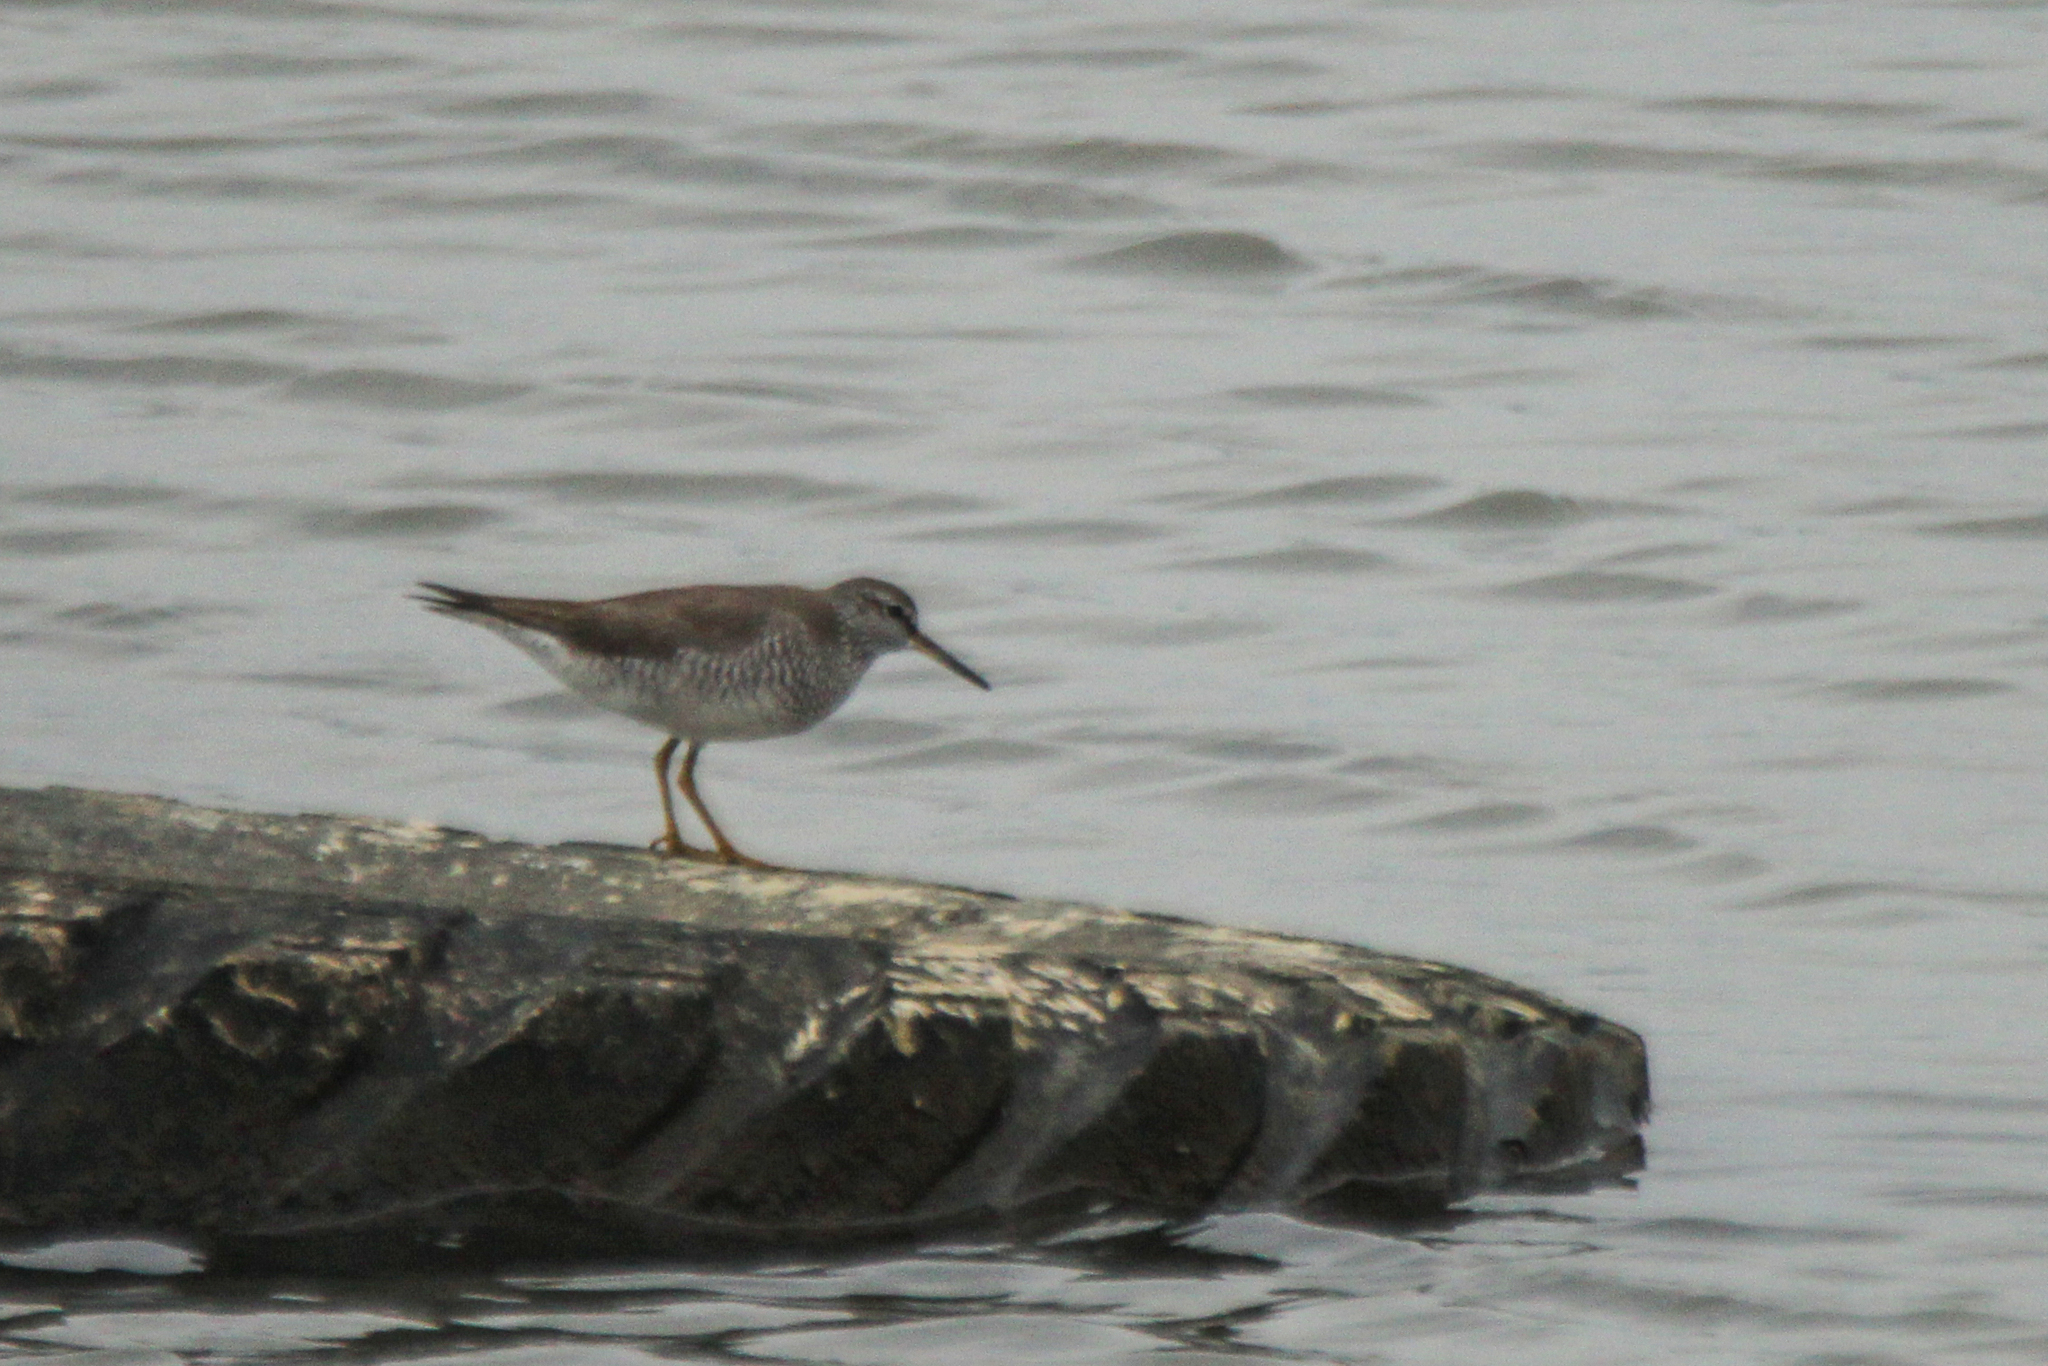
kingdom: Animalia
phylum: Chordata
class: Aves
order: Charadriiformes
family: Scolopacidae
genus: Tringa
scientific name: Tringa brevipes
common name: Grey-tailed tattler
